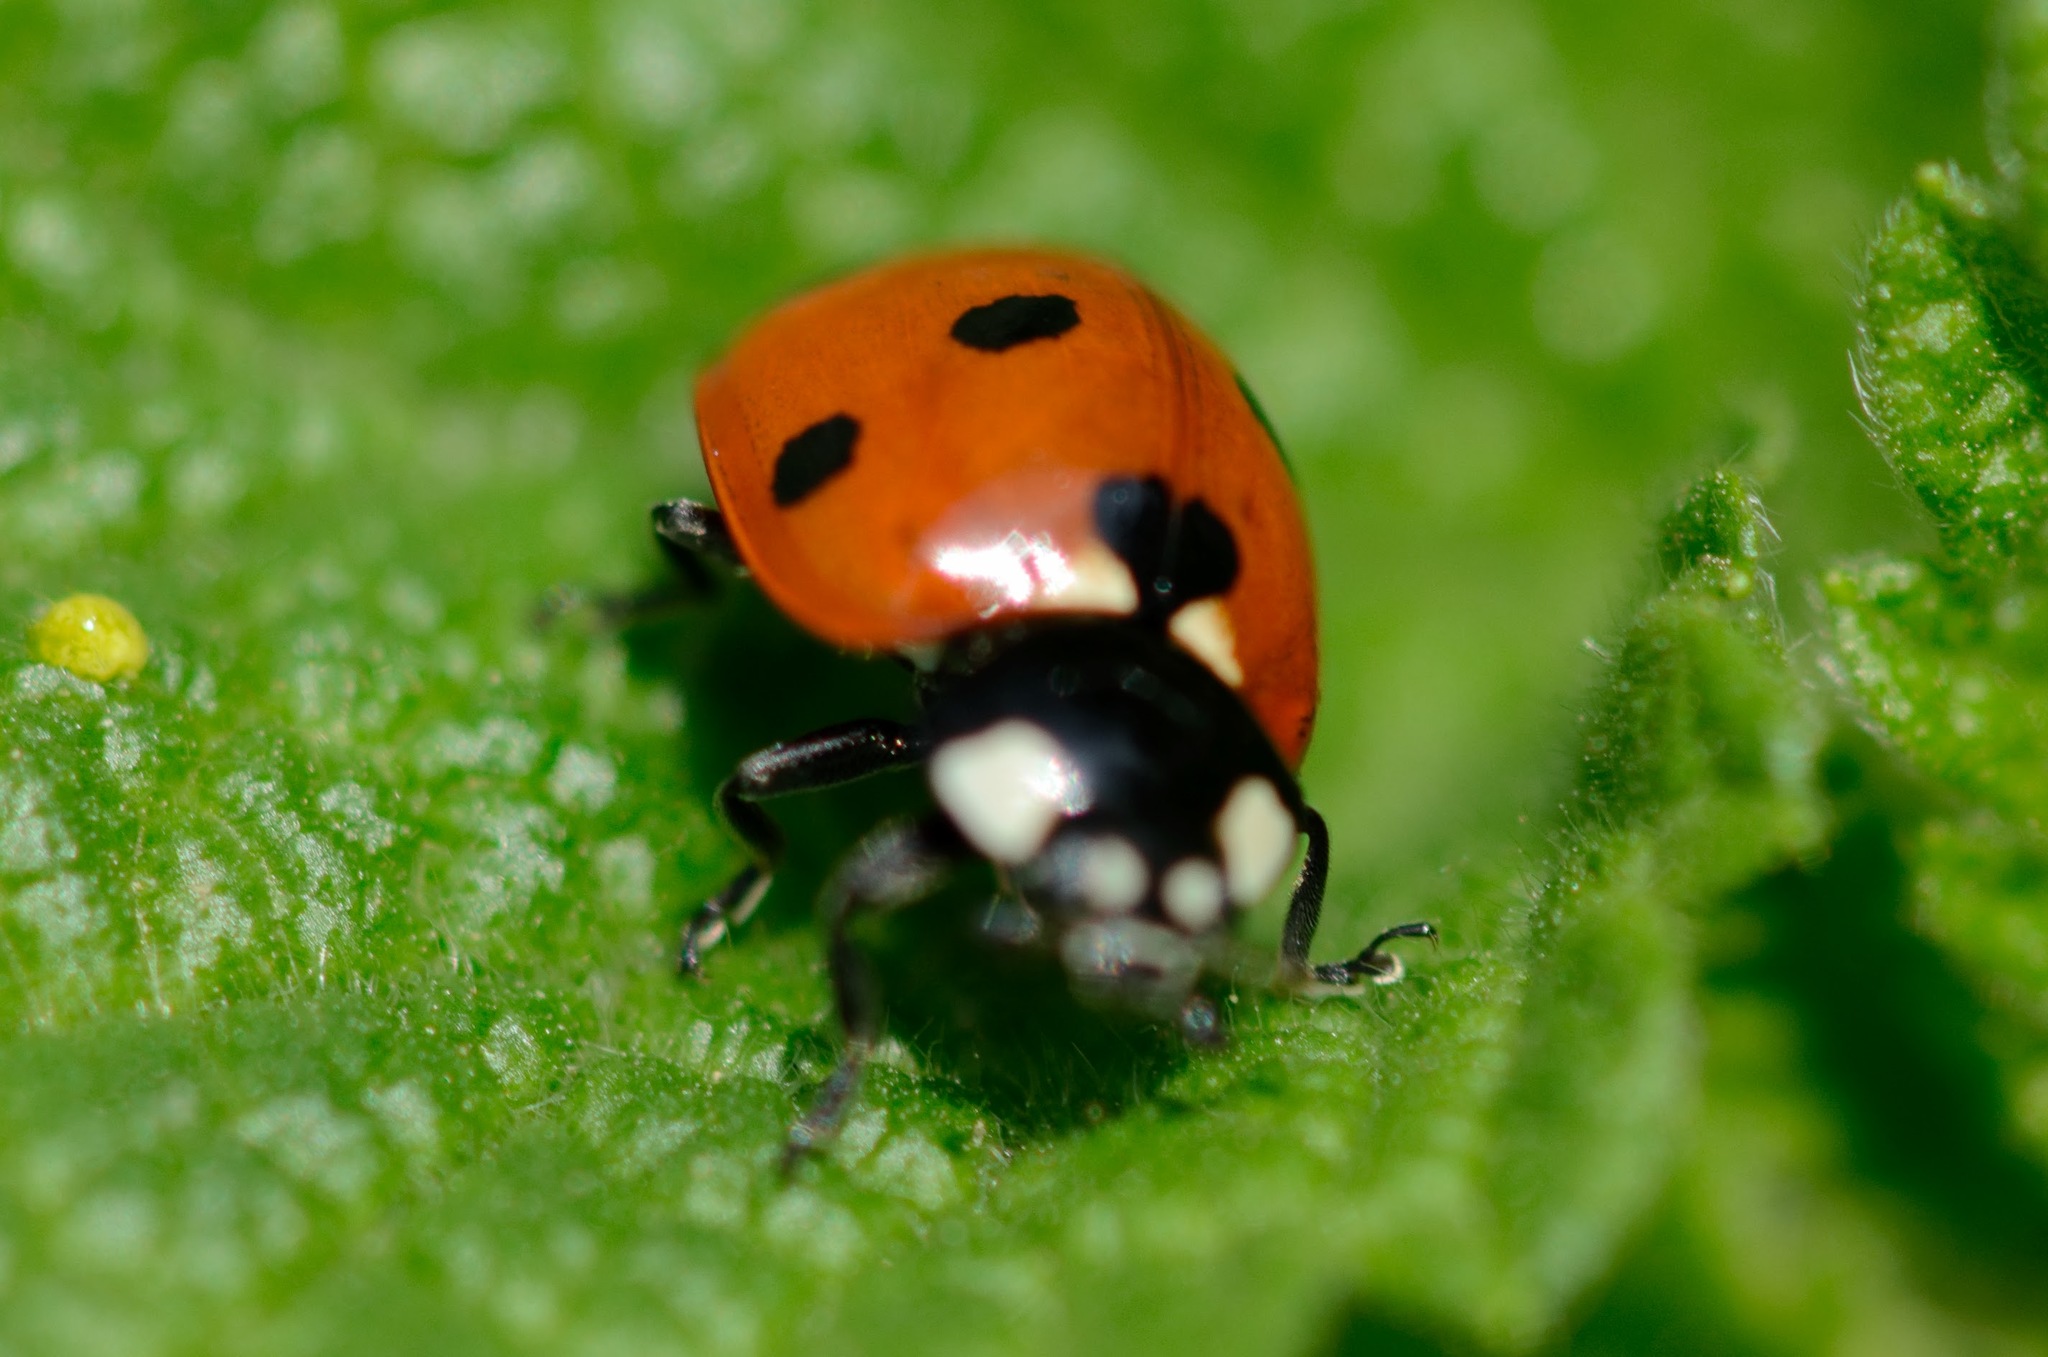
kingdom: Animalia
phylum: Arthropoda
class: Insecta
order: Coleoptera
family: Coccinellidae
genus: Coccinella
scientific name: Coccinella septempunctata
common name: Sevenspotted lady beetle
